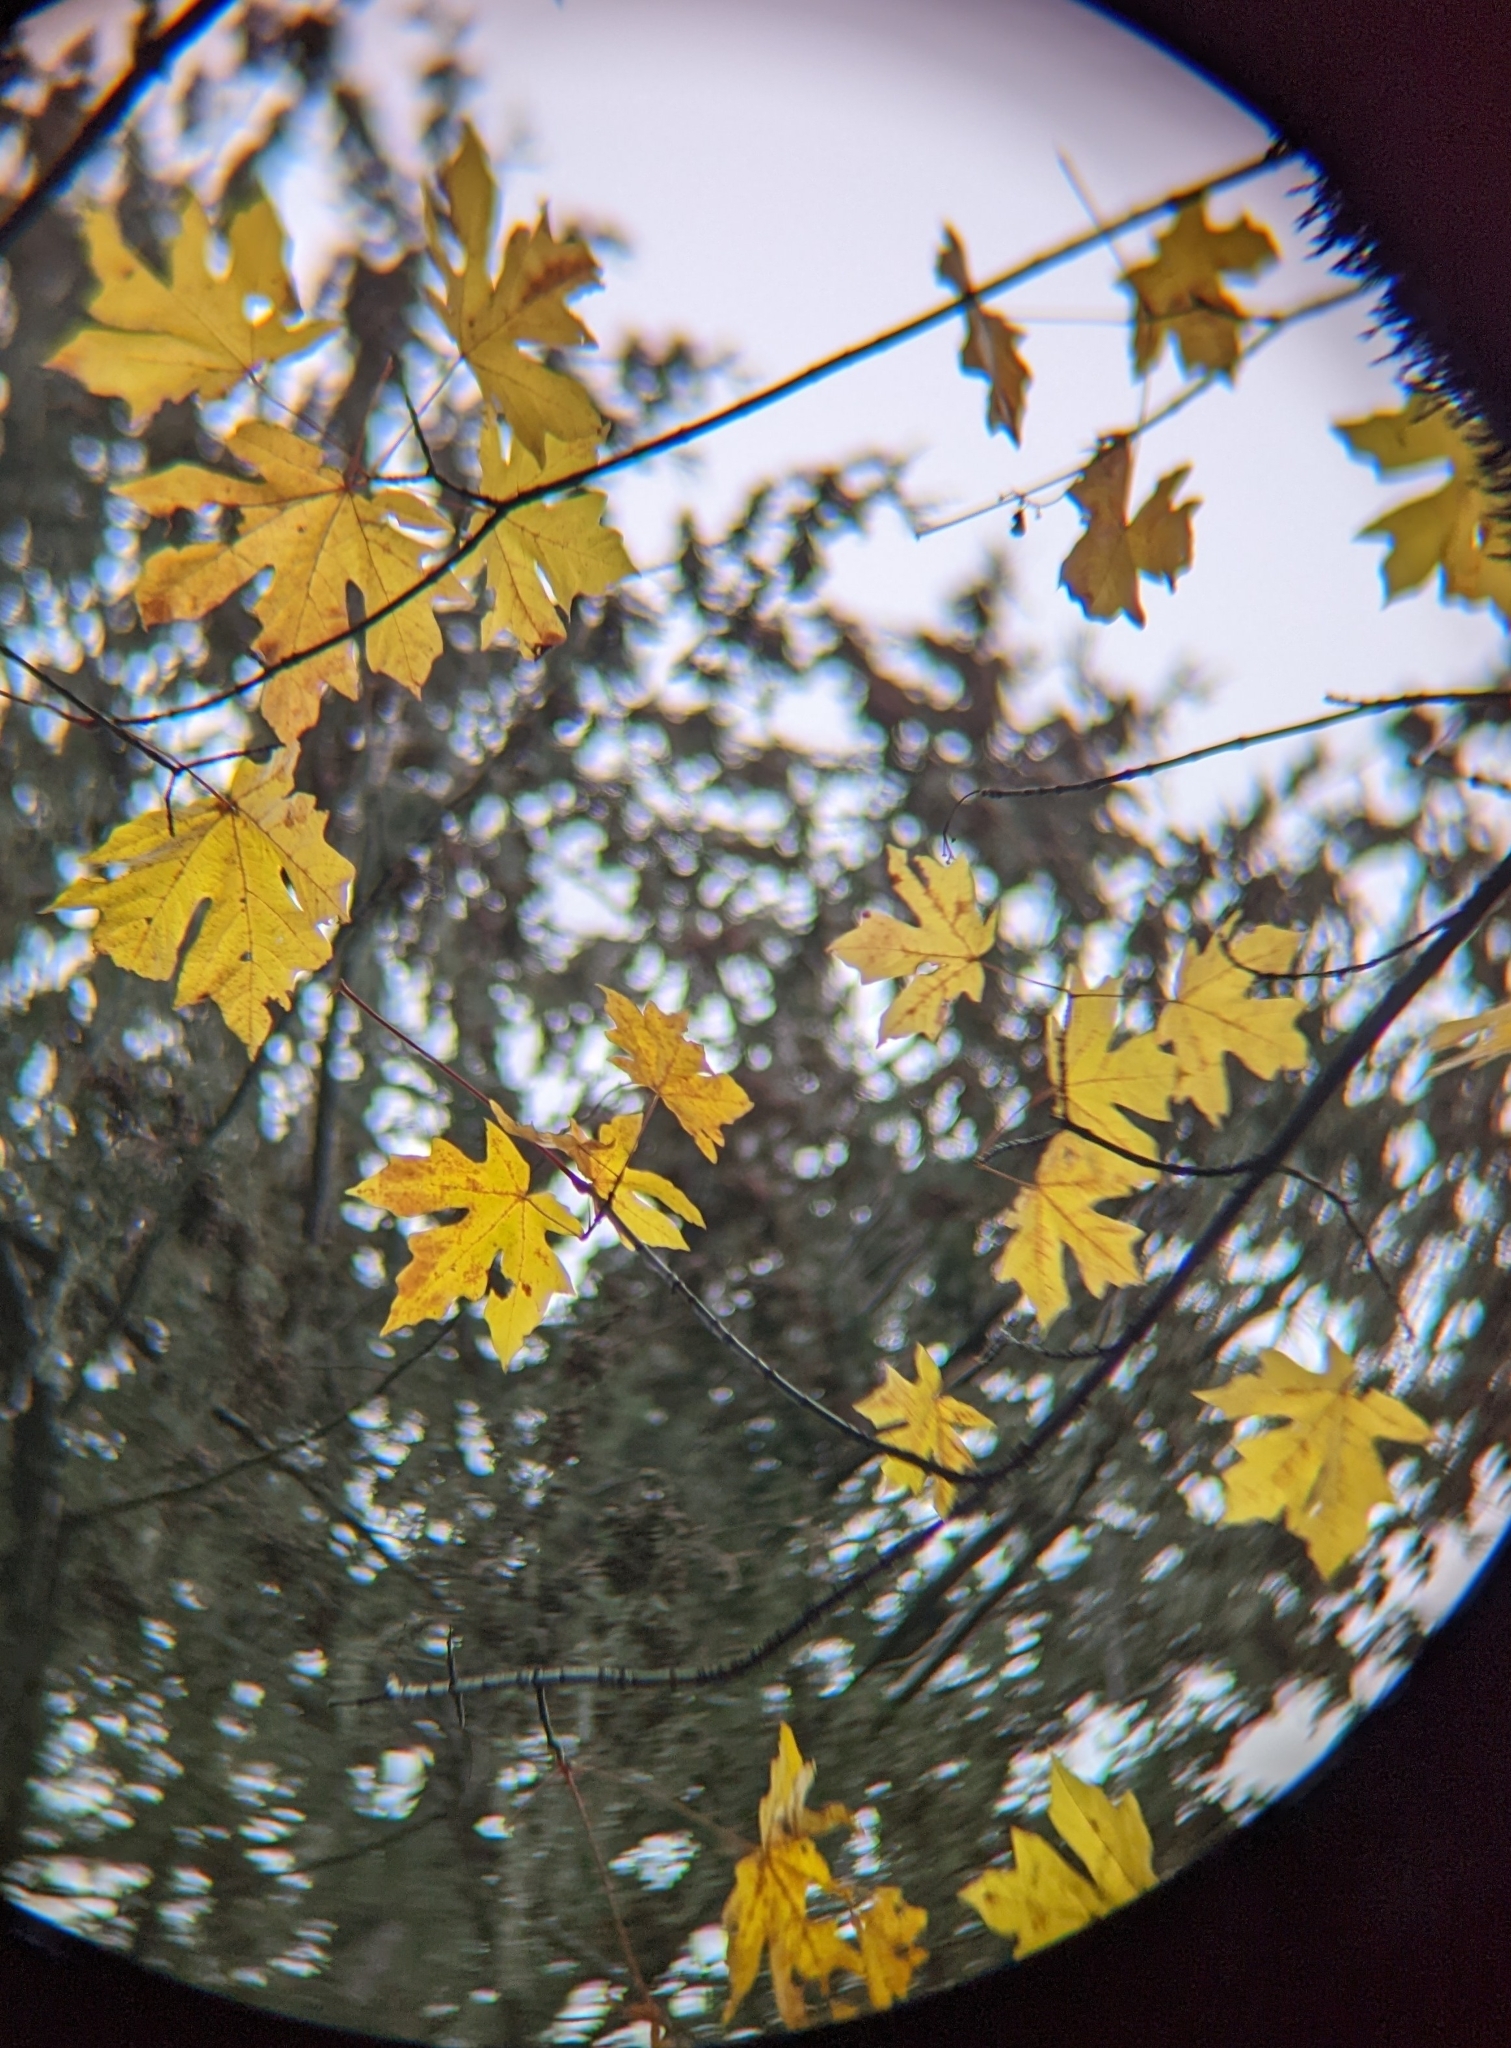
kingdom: Plantae
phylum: Tracheophyta
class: Magnoliopsida
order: Sapindales
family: Sapindaceae
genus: Acer
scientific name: Acer macrophyllum
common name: Oregon maple
